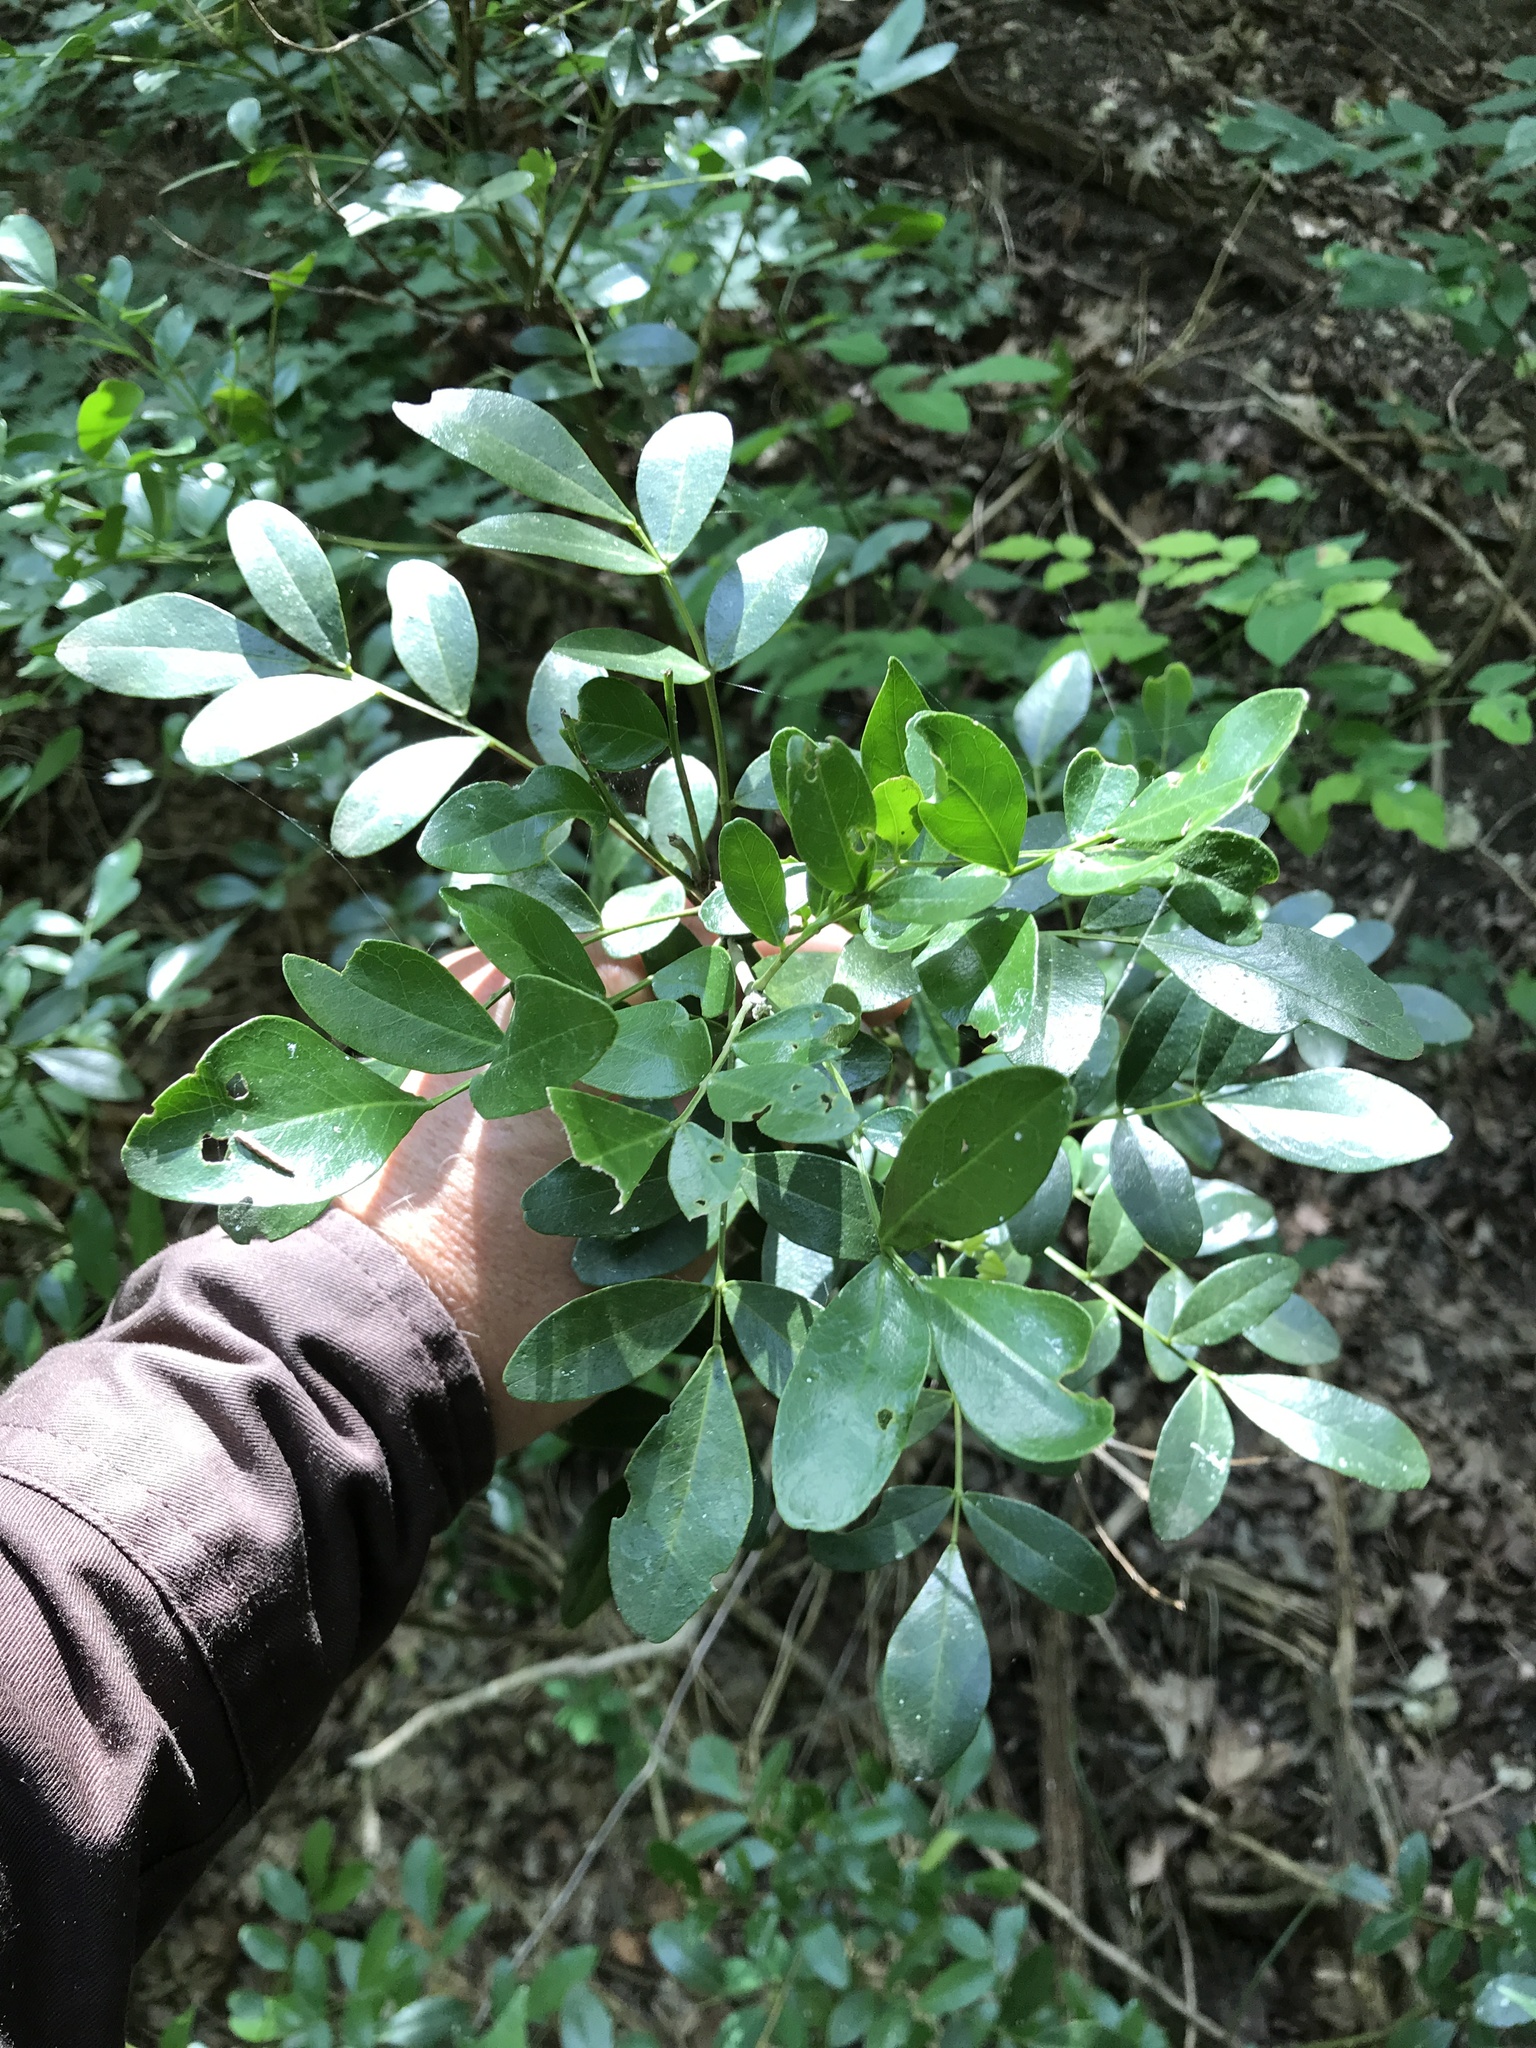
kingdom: Plantae
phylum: Tracheophyta
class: Magnoliopsida
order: Fabales
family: Fabaceae
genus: Dermatophyllum
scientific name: Dermatophyllum secundiflorum
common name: Texas-mountain-laurel
